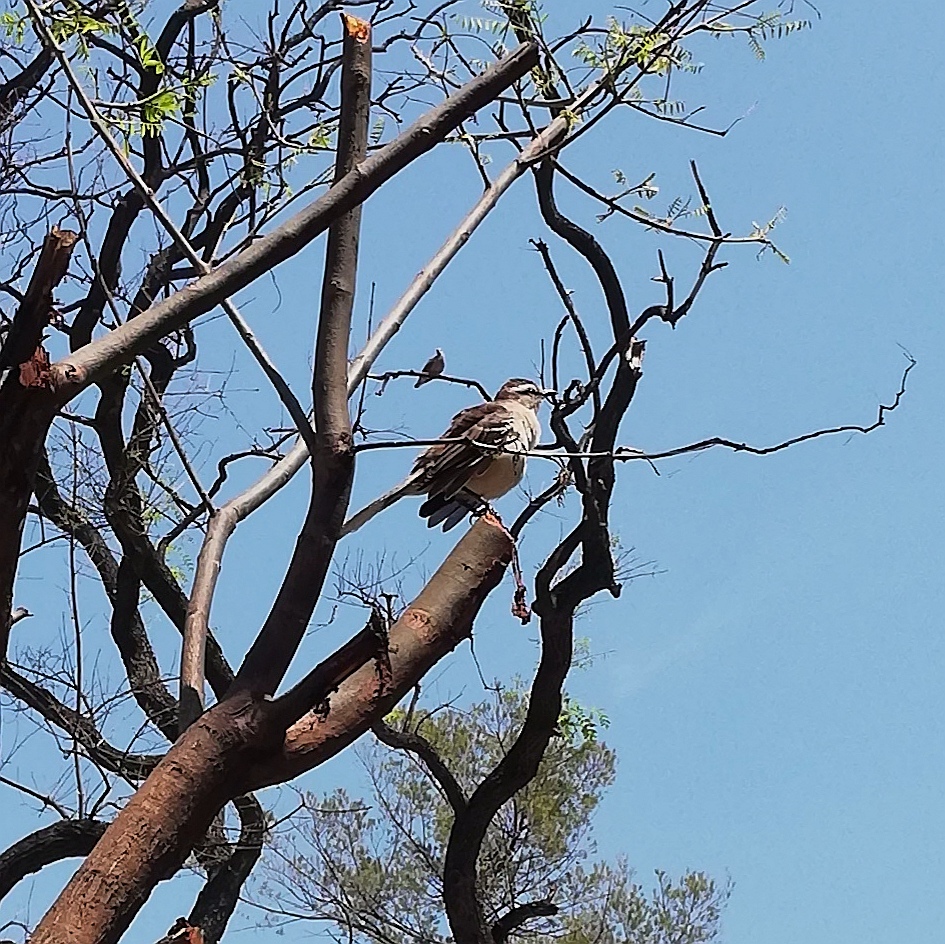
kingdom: Animalia
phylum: Chordata
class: Aves
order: Passeriformes
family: Mimidae
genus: Mimus
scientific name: Mimus saturninus
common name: Chalk-browed mockingbird
